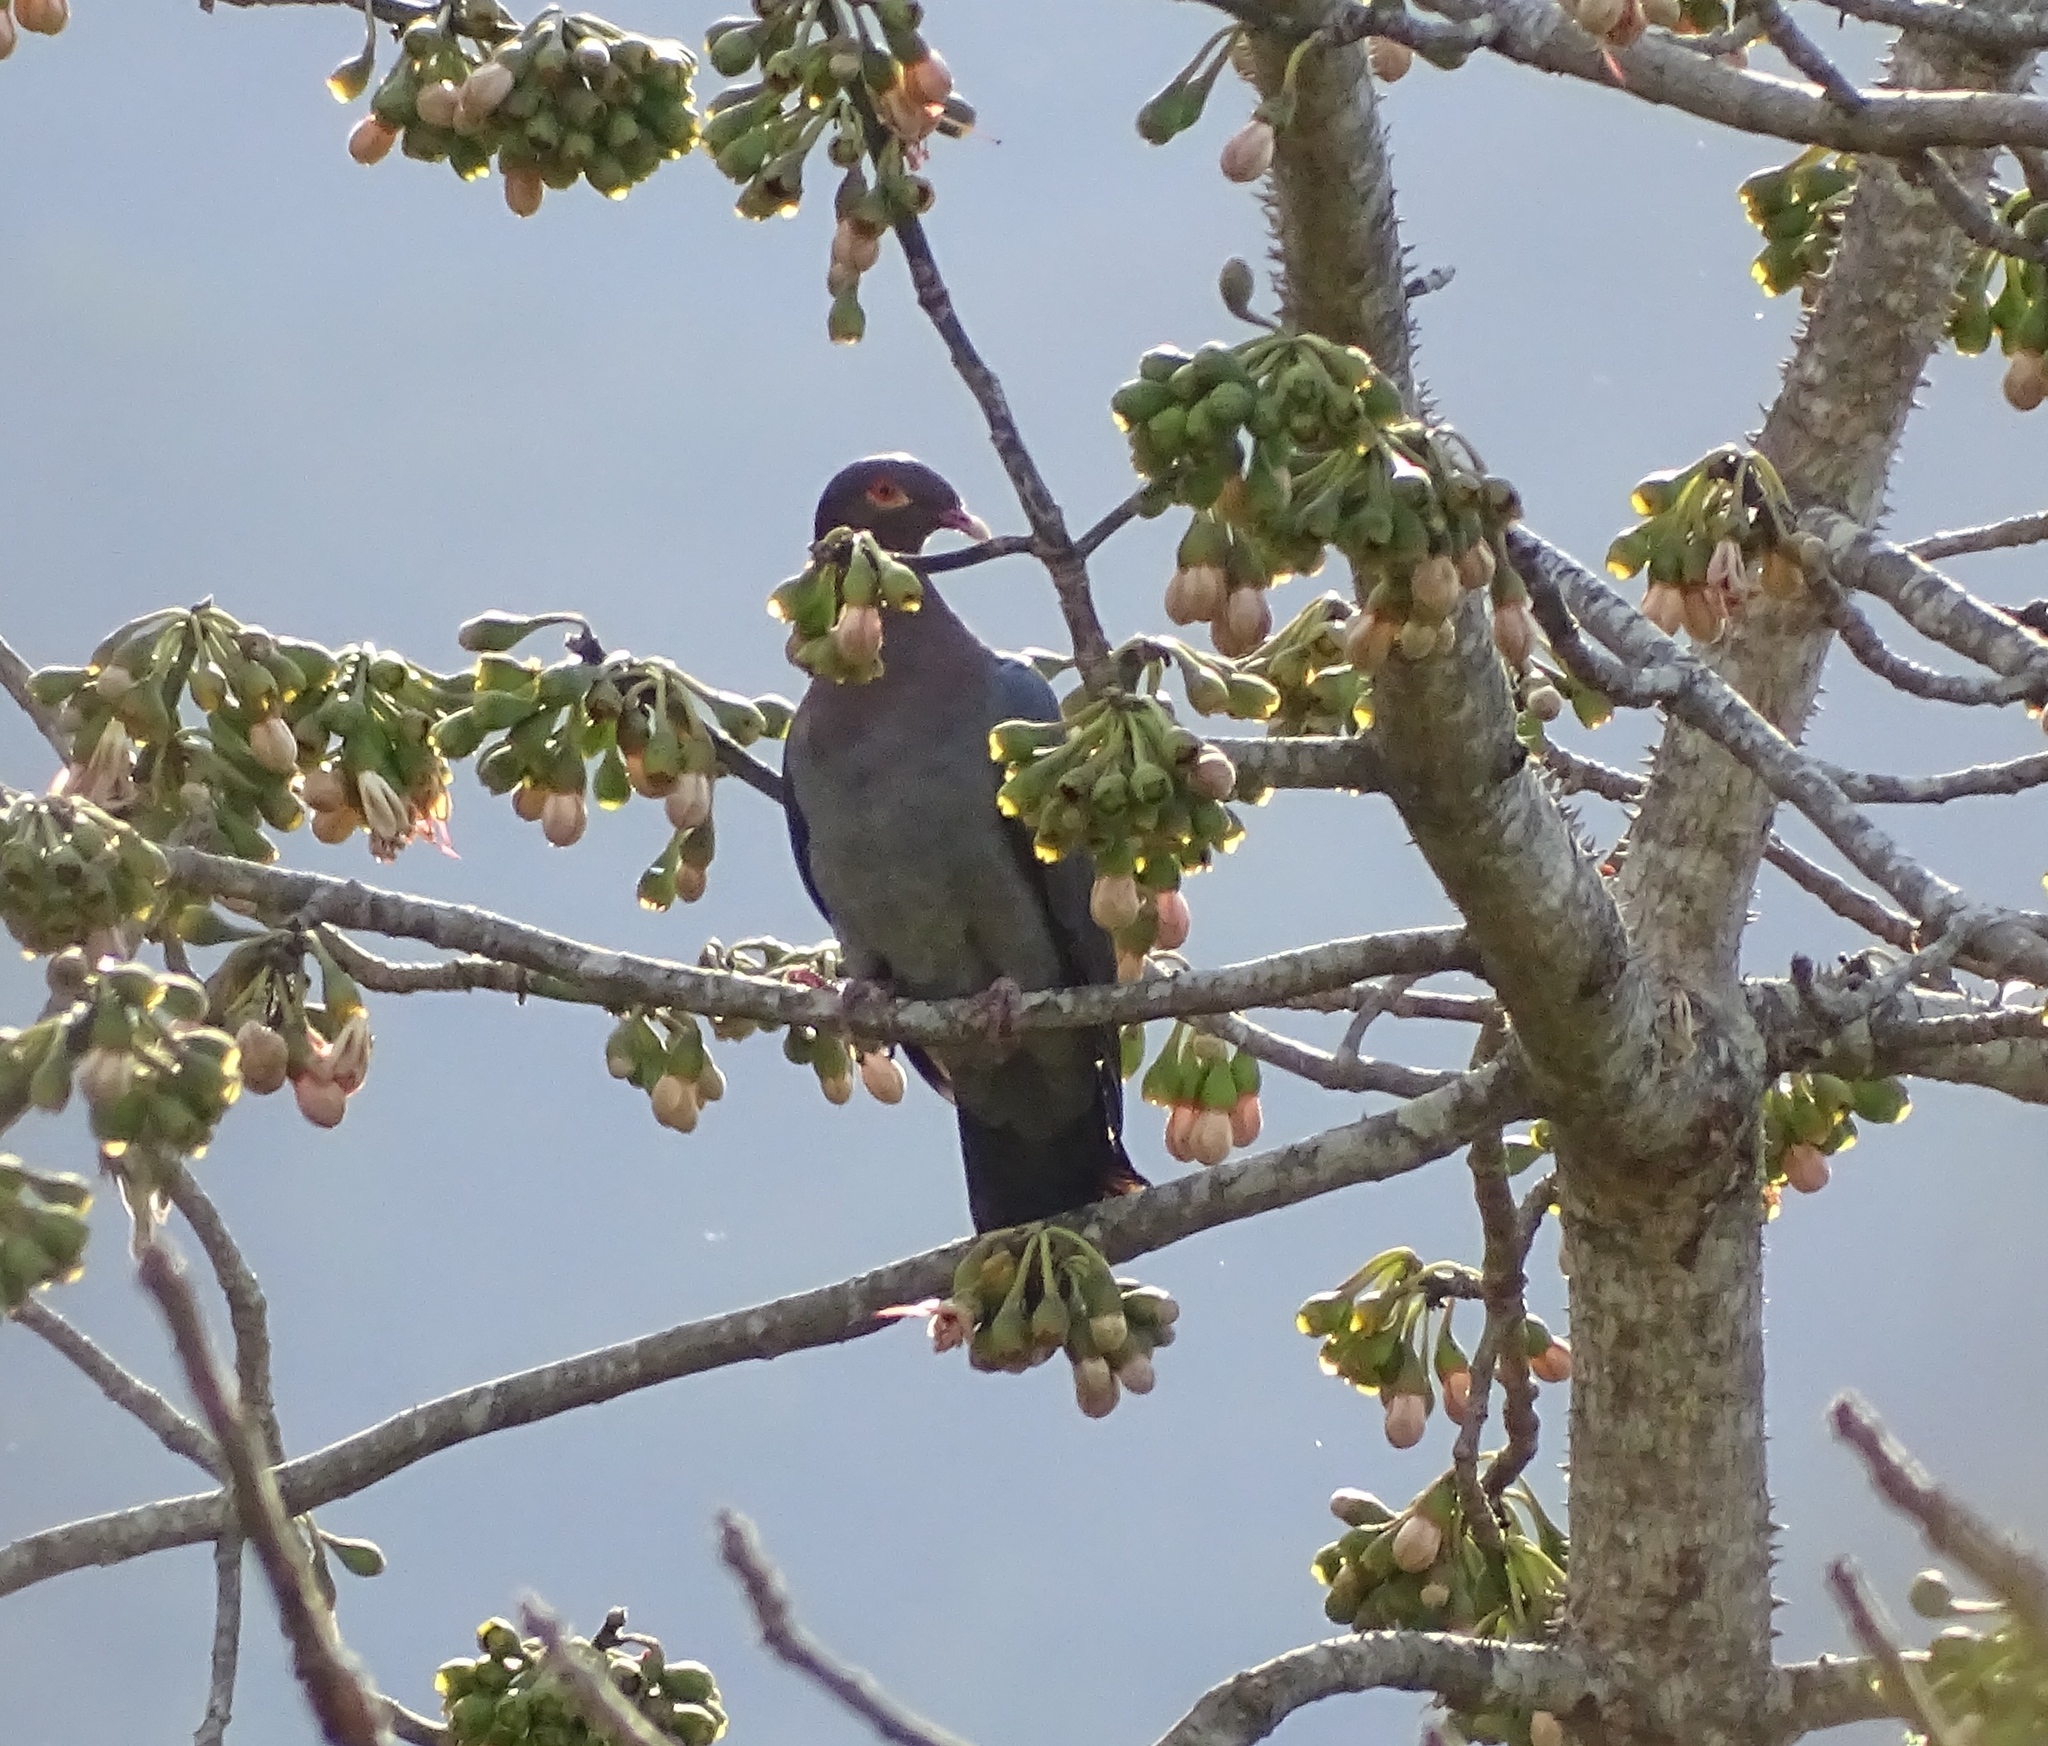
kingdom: Animalia
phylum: Chordata
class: Aves
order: Columbiformes
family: Columbidae
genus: Patagioenas
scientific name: Patagioenas squamosa
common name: Scaly-naped pigeon
